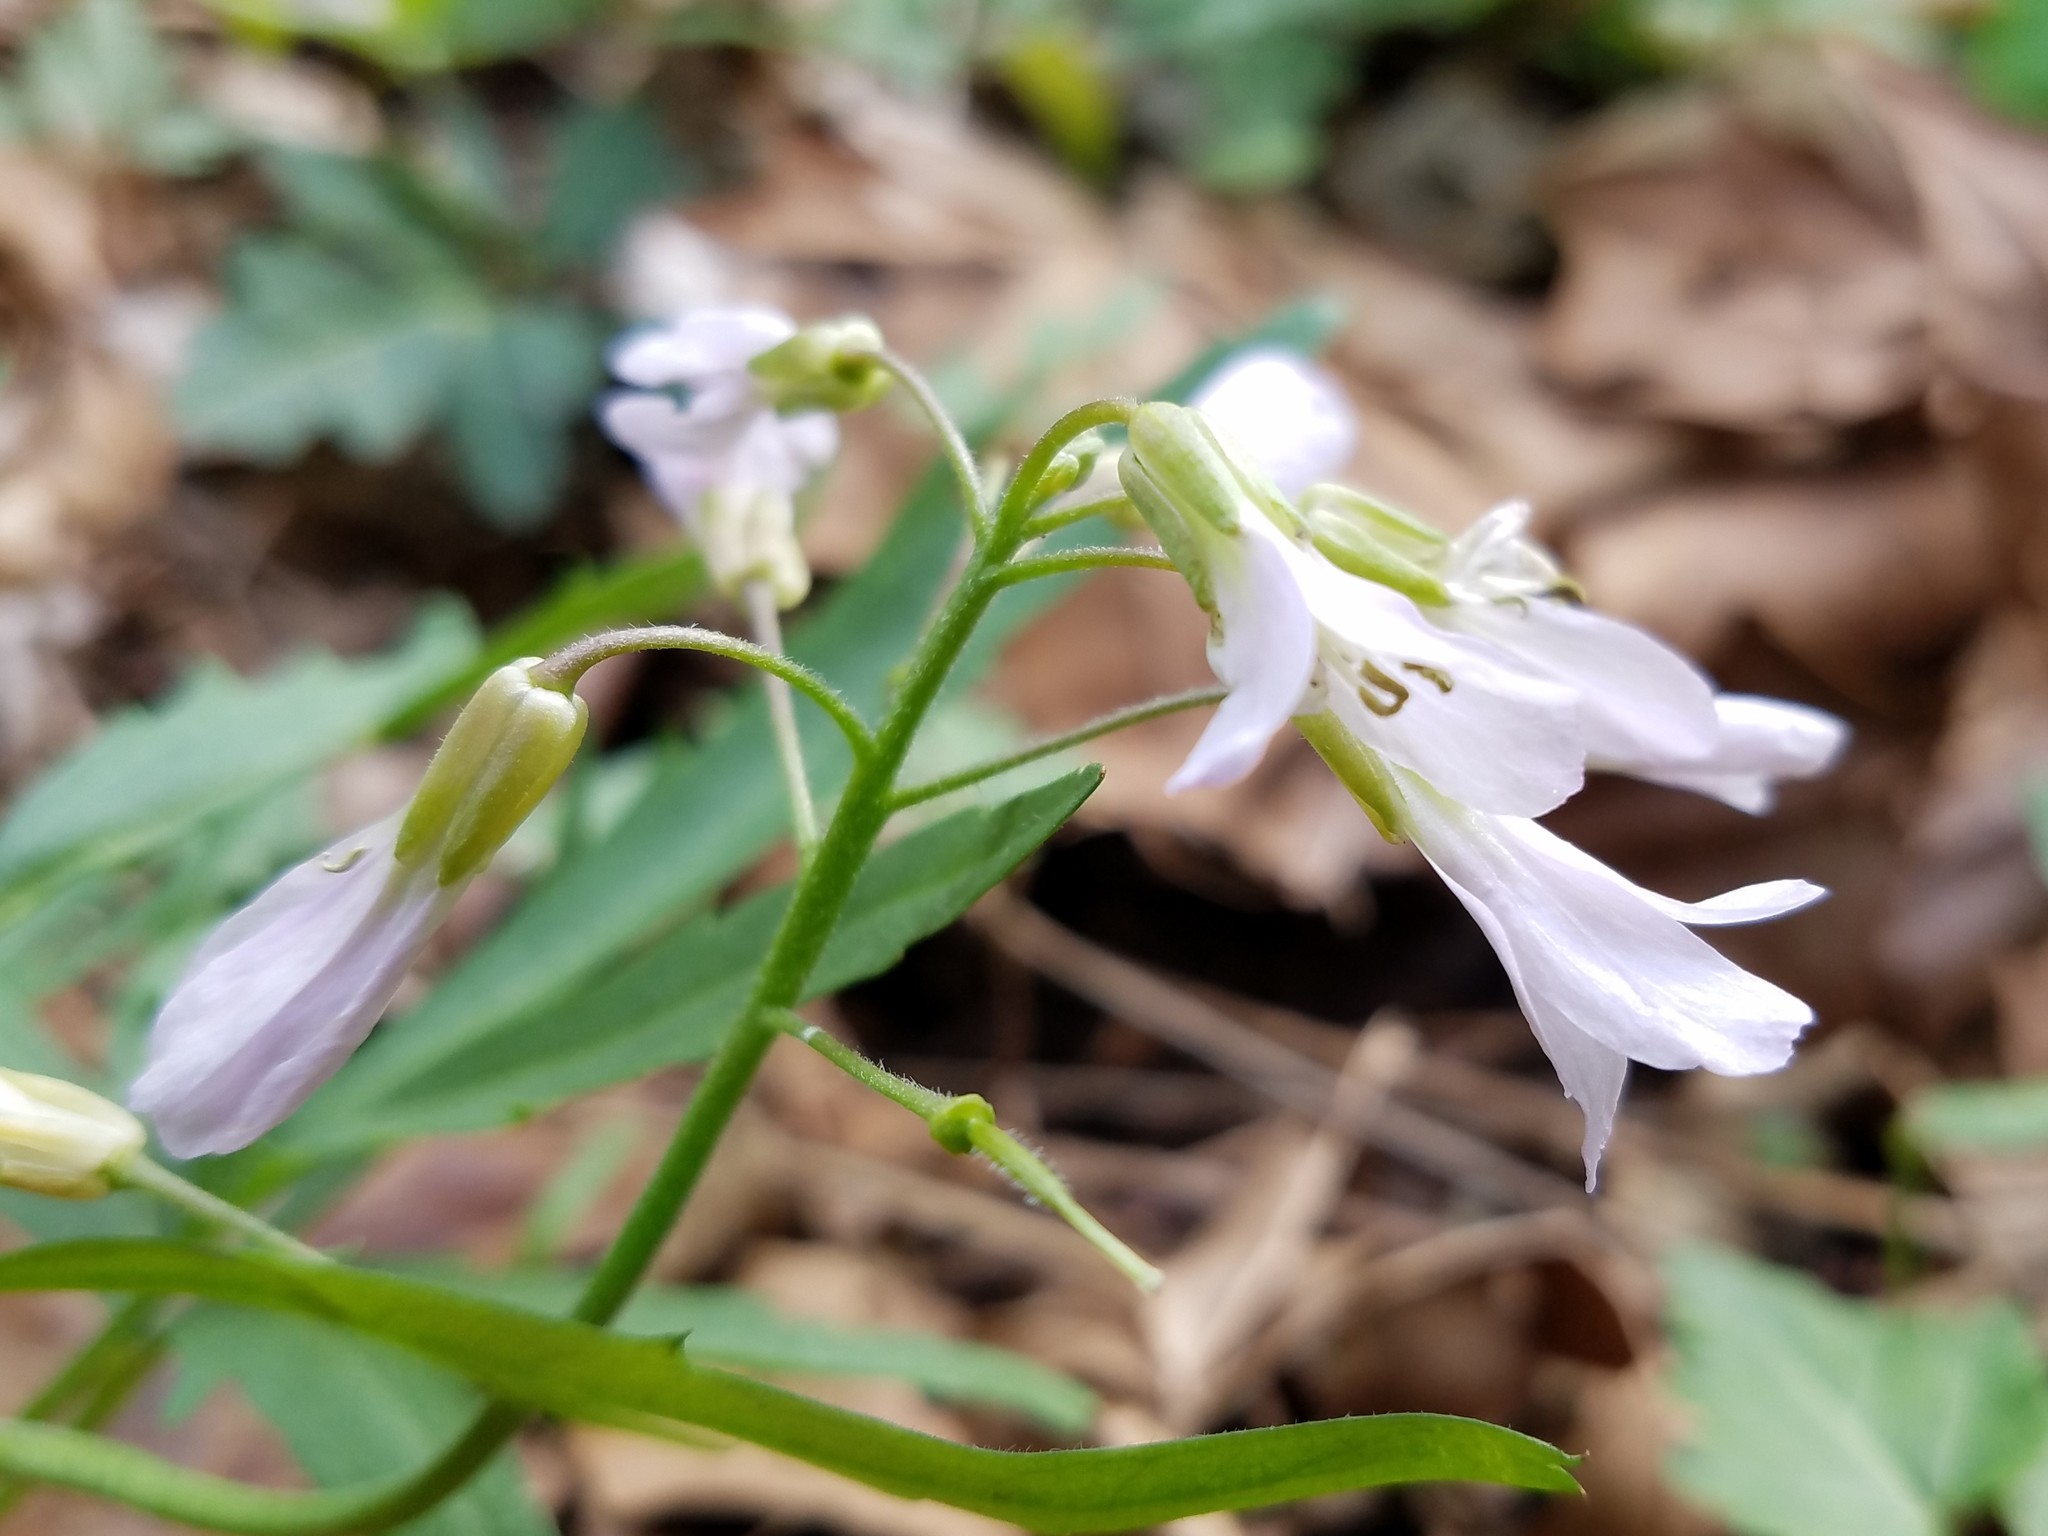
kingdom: Plantae
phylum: Tracheophyta
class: Magnoliopsida
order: Brassicales
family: Brassicaceae
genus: Cardamine
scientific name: Cardamine concatenata
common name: Cut-leaf toothcup
